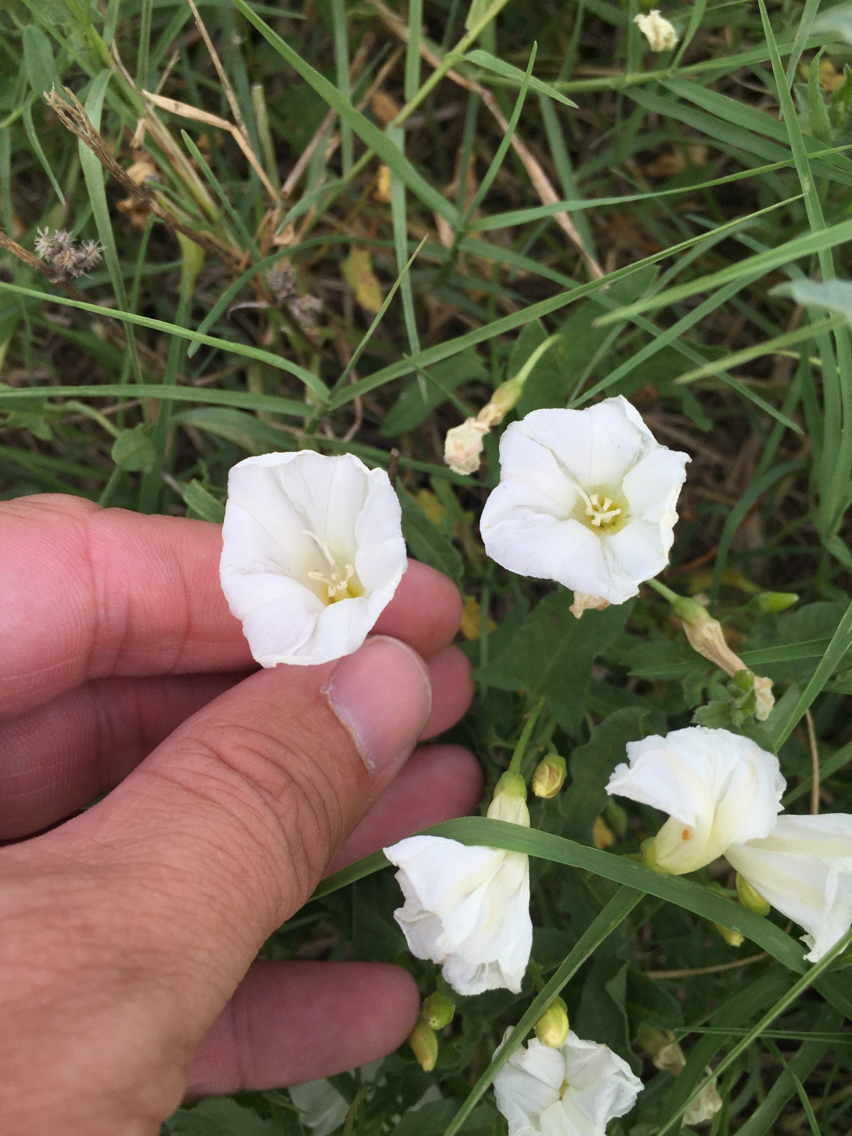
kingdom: Plantae
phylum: Tracheophyta
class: Magnoliopsida
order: Solanales
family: Convolvulaceae
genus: Convolvulus
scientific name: Convolvulus arvensis
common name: Field bindweed
